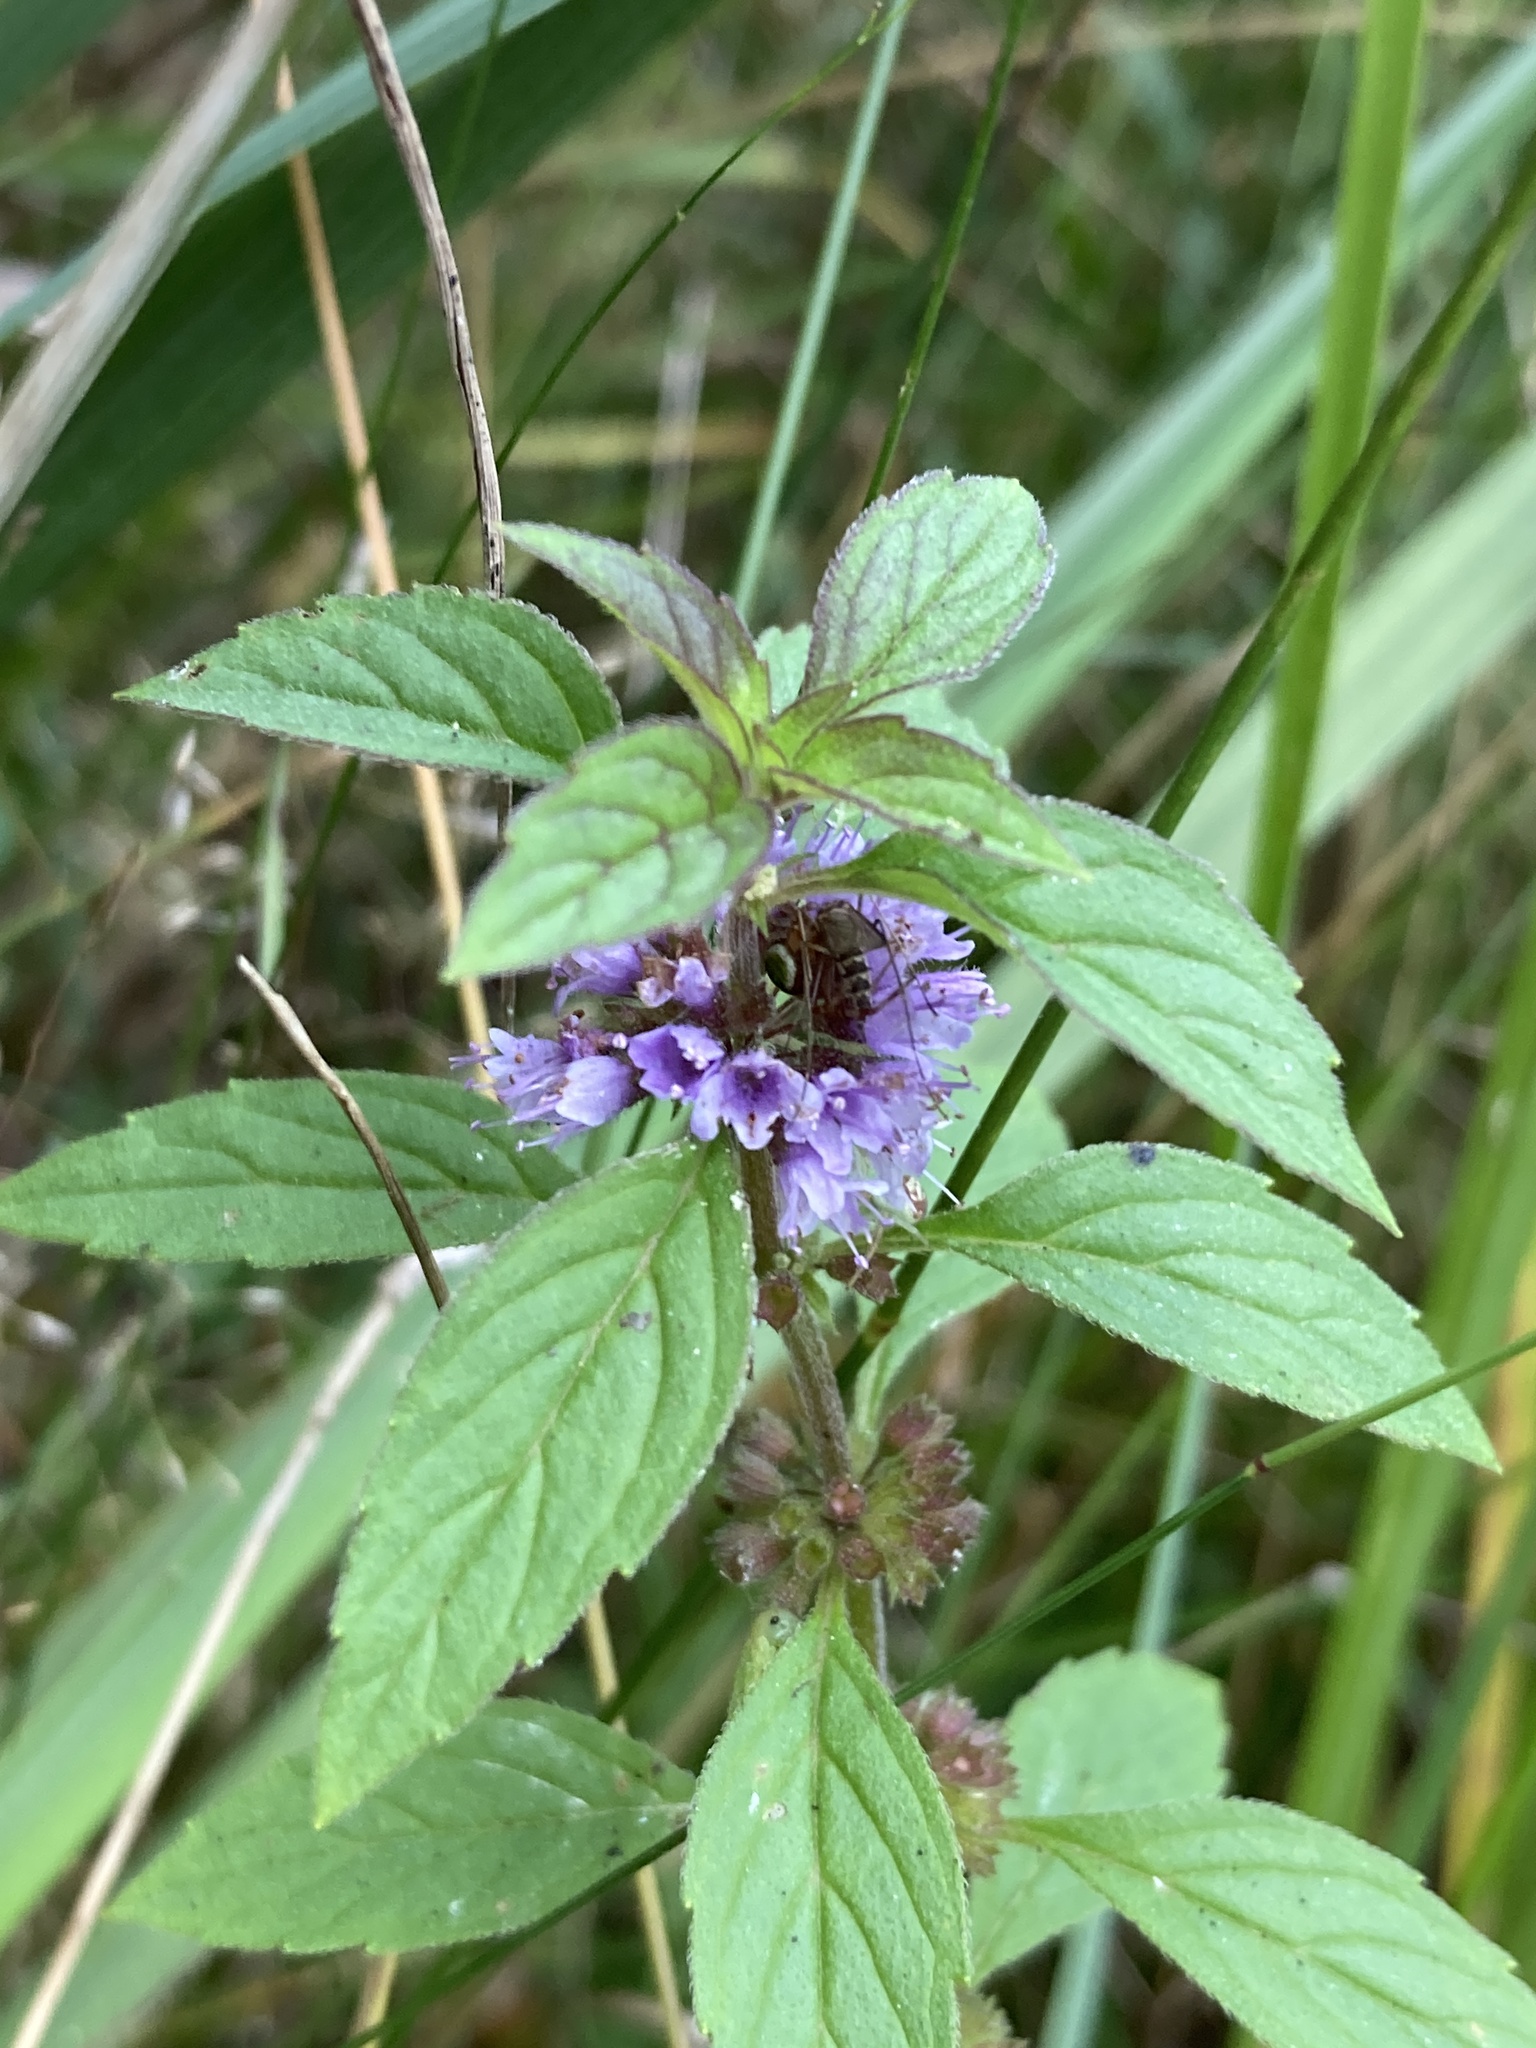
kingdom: Plantae
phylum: Tracheophyta
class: Magnoliopsida
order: Lamiales
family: Lamiaceae
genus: Mentha
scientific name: Mentha arvensis
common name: Corn mint
